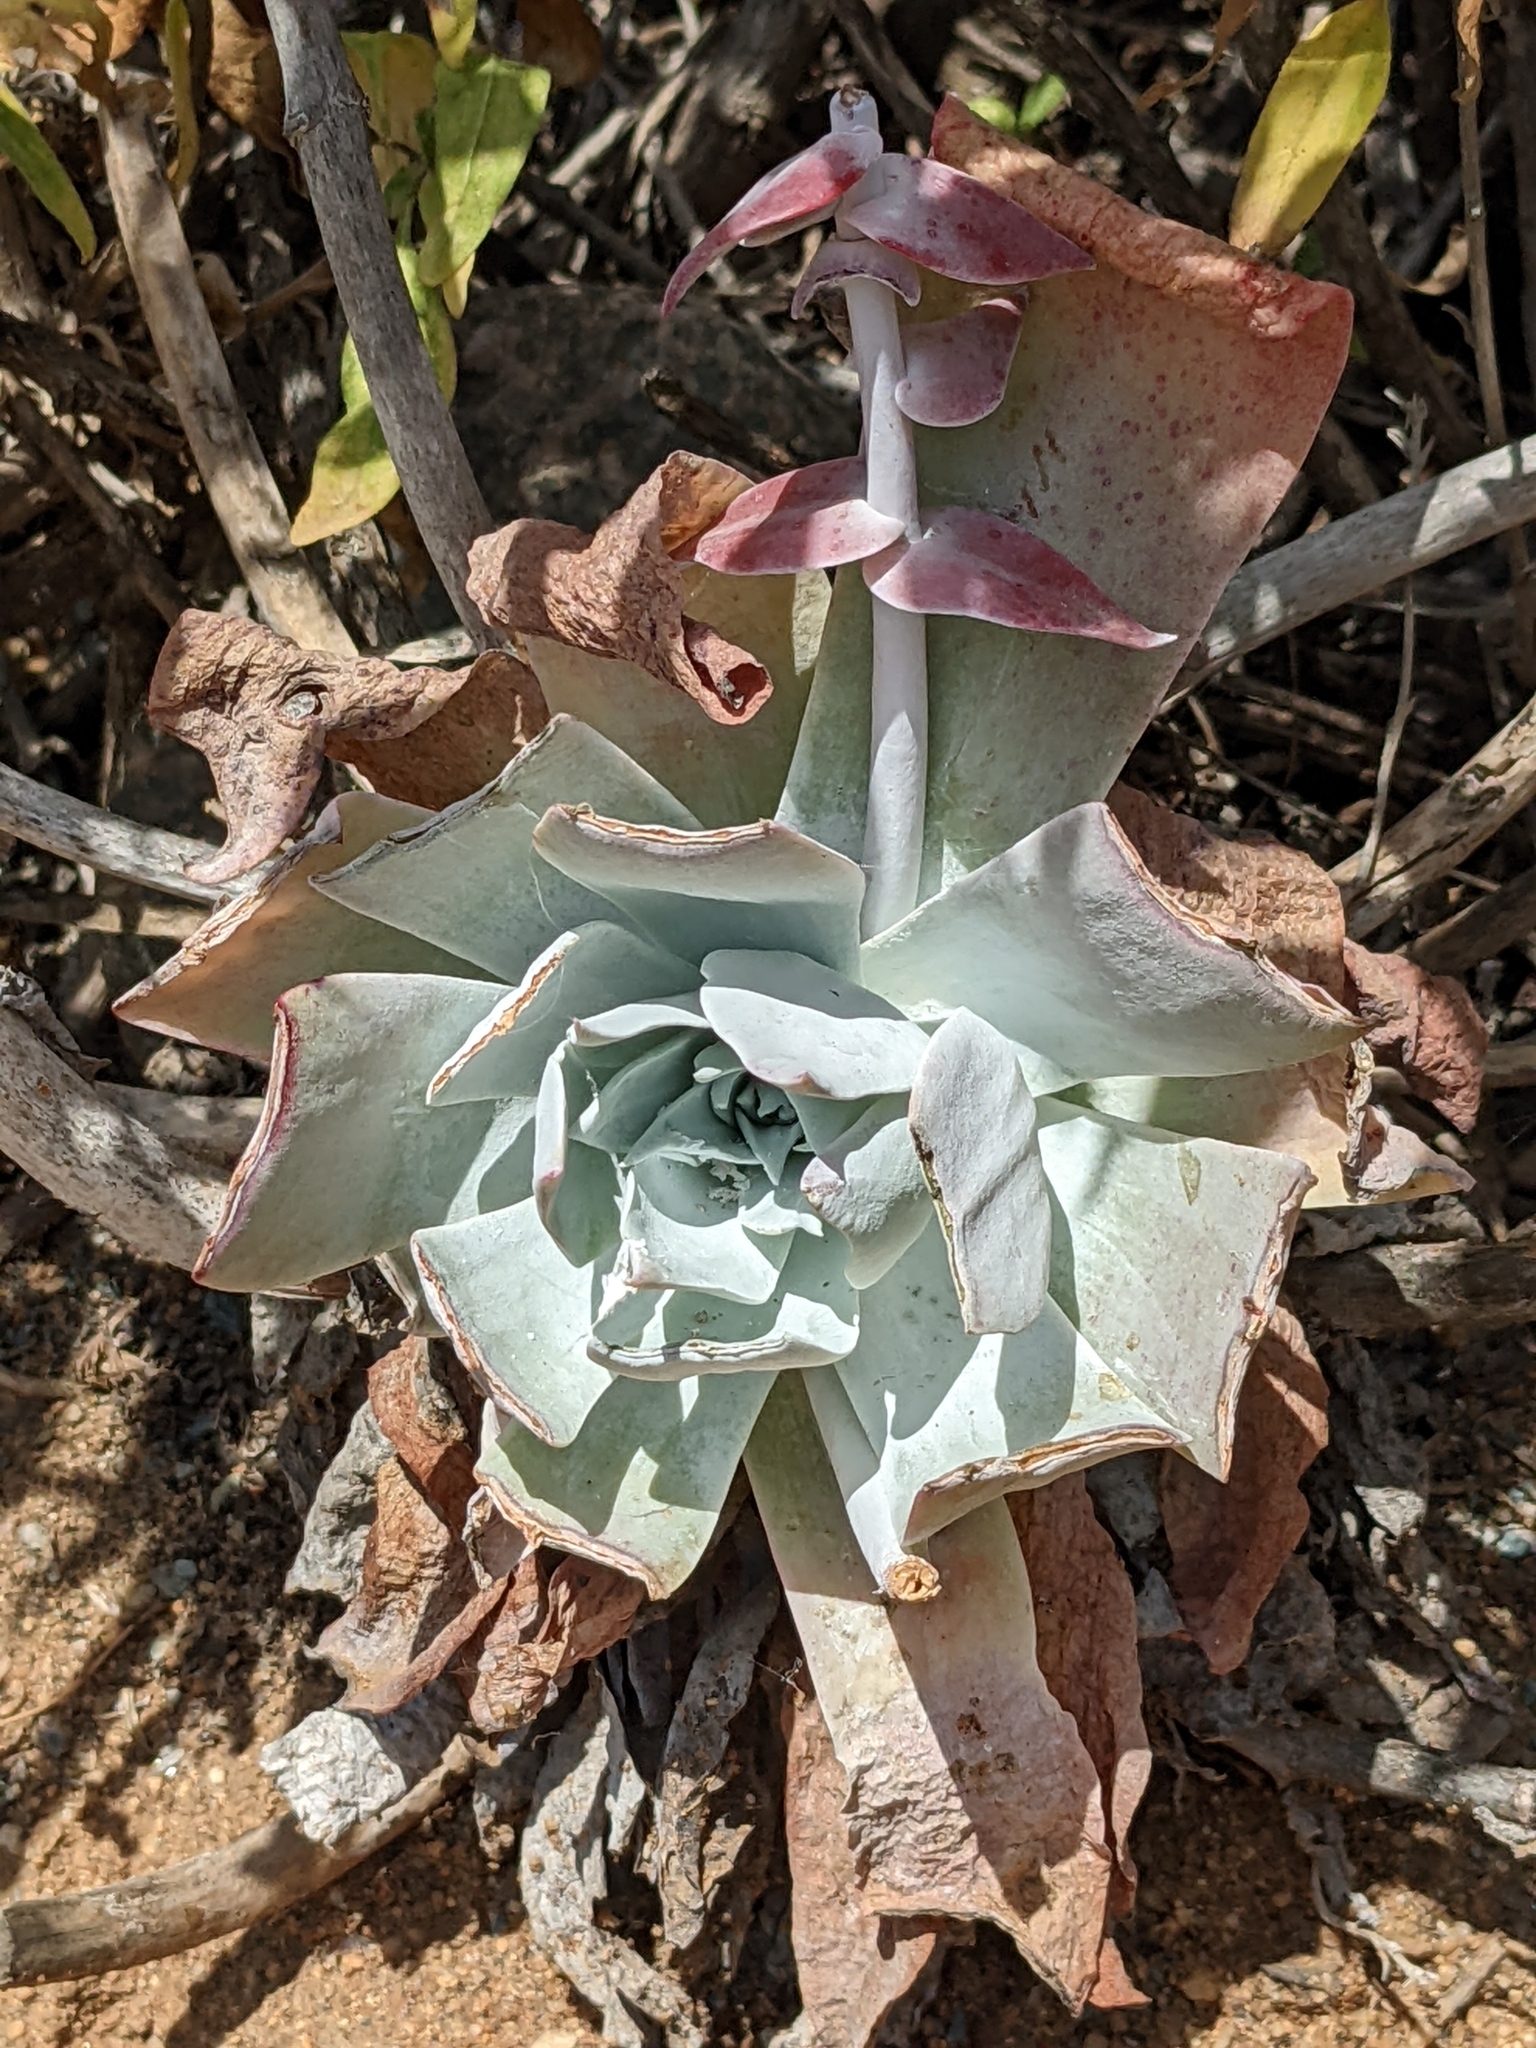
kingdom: Plantae
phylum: Tracheophyta
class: Magnoliopsida
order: Saxifragales
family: Crassulaceae
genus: Dudleya
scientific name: Dudleya pulverulenta
